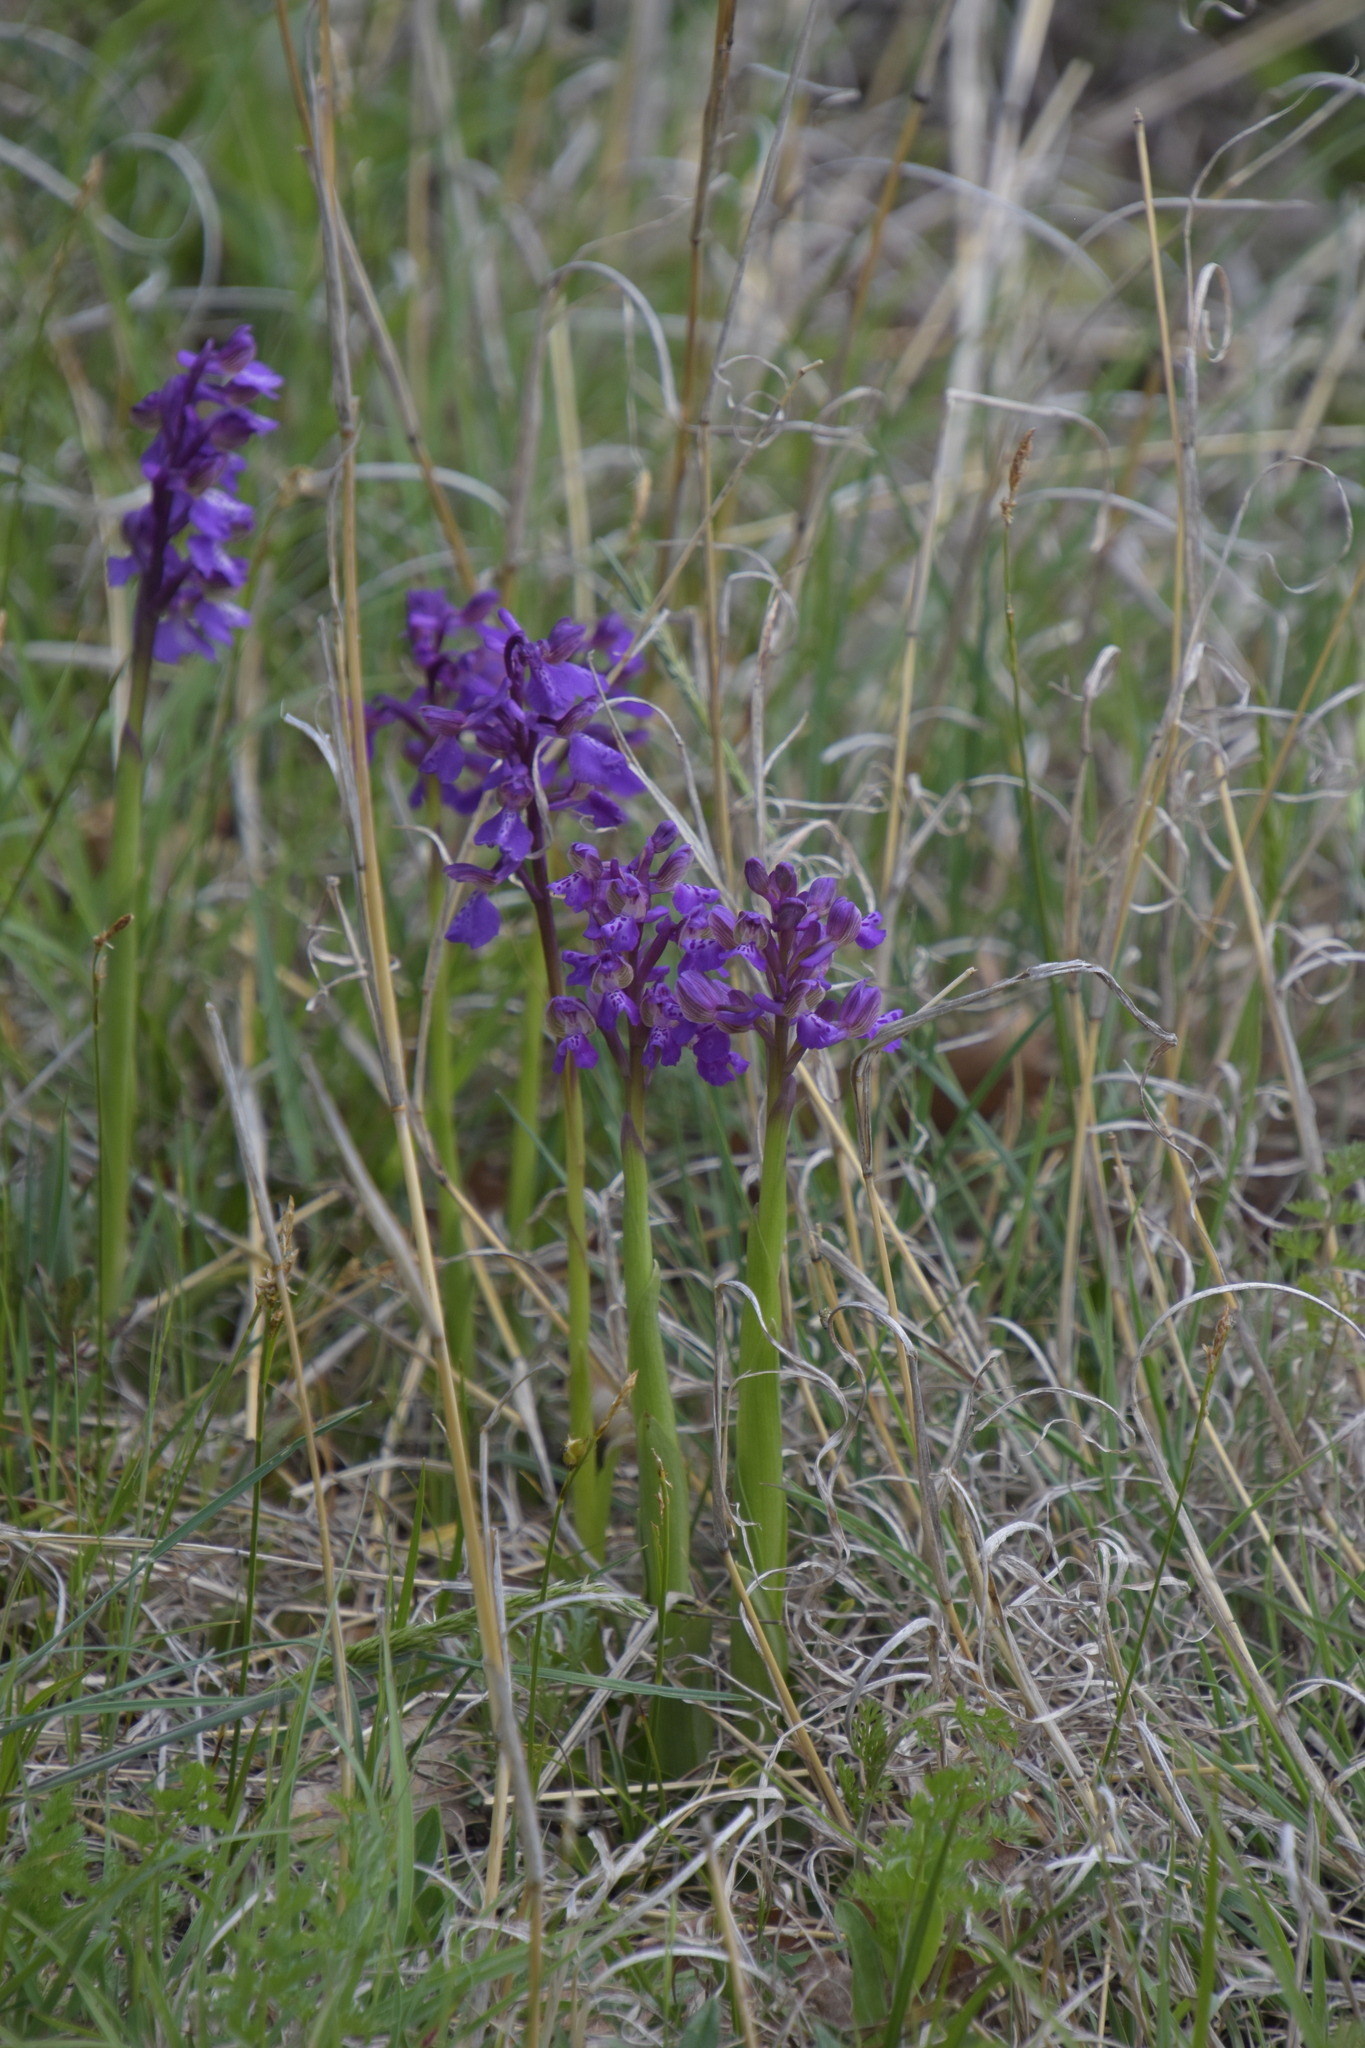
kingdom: Plantae
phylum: Tracheophyta
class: Liliopsida
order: Asparagales
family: Orchidaceae
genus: Anacamptis
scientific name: Anacamptis morio
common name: Green-winged orchid
